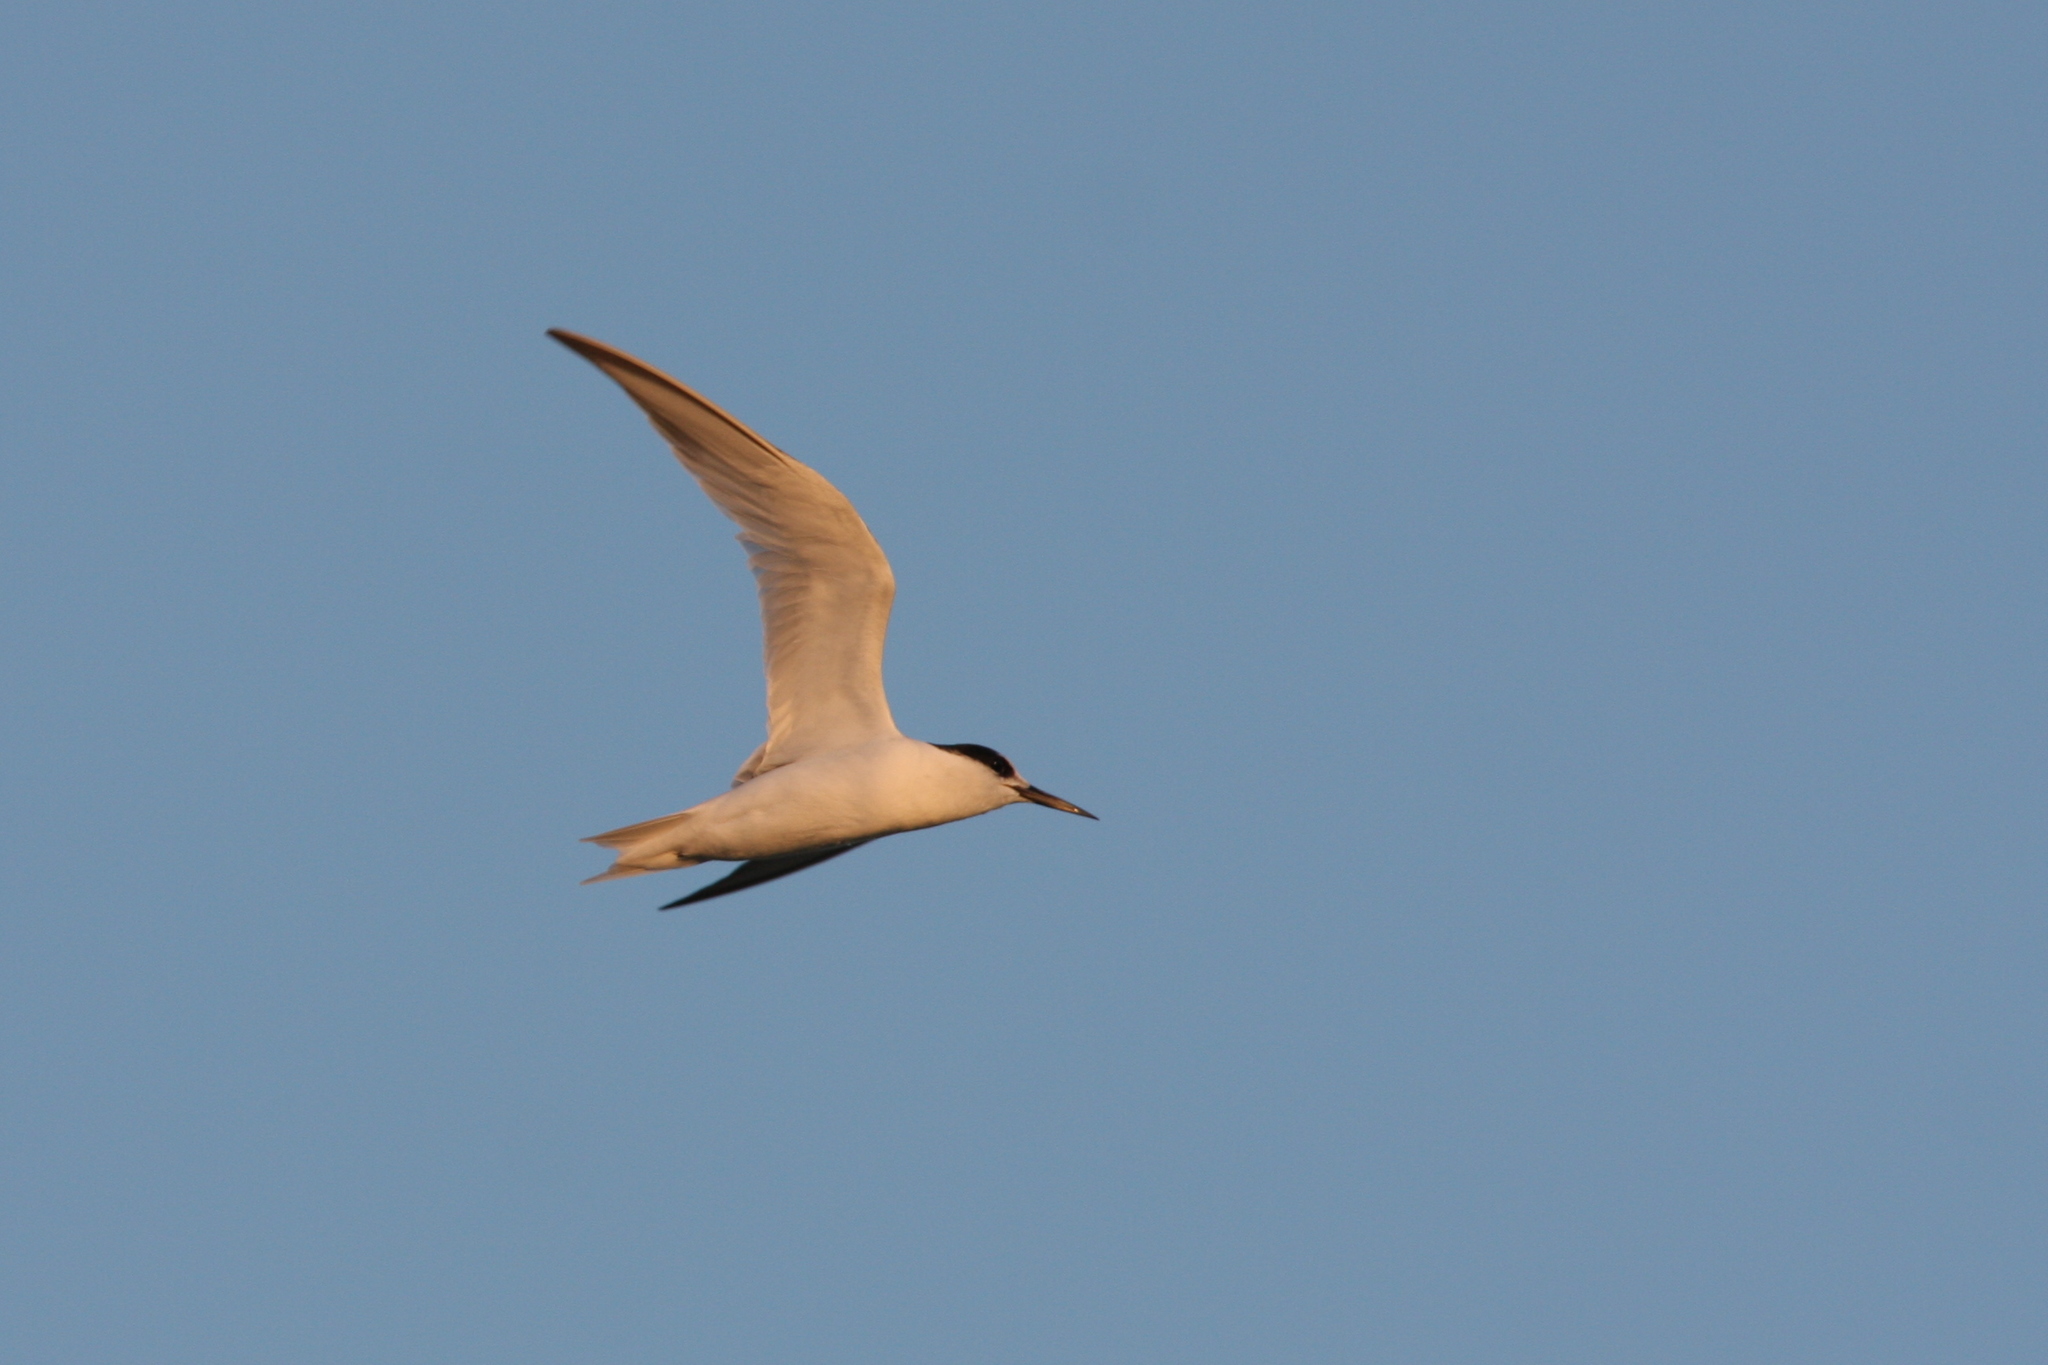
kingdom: Animalia
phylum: Chordata
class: Aves
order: Charadriiformes
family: Laridae
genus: Sternula
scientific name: Sternula albifrons
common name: Little tern
